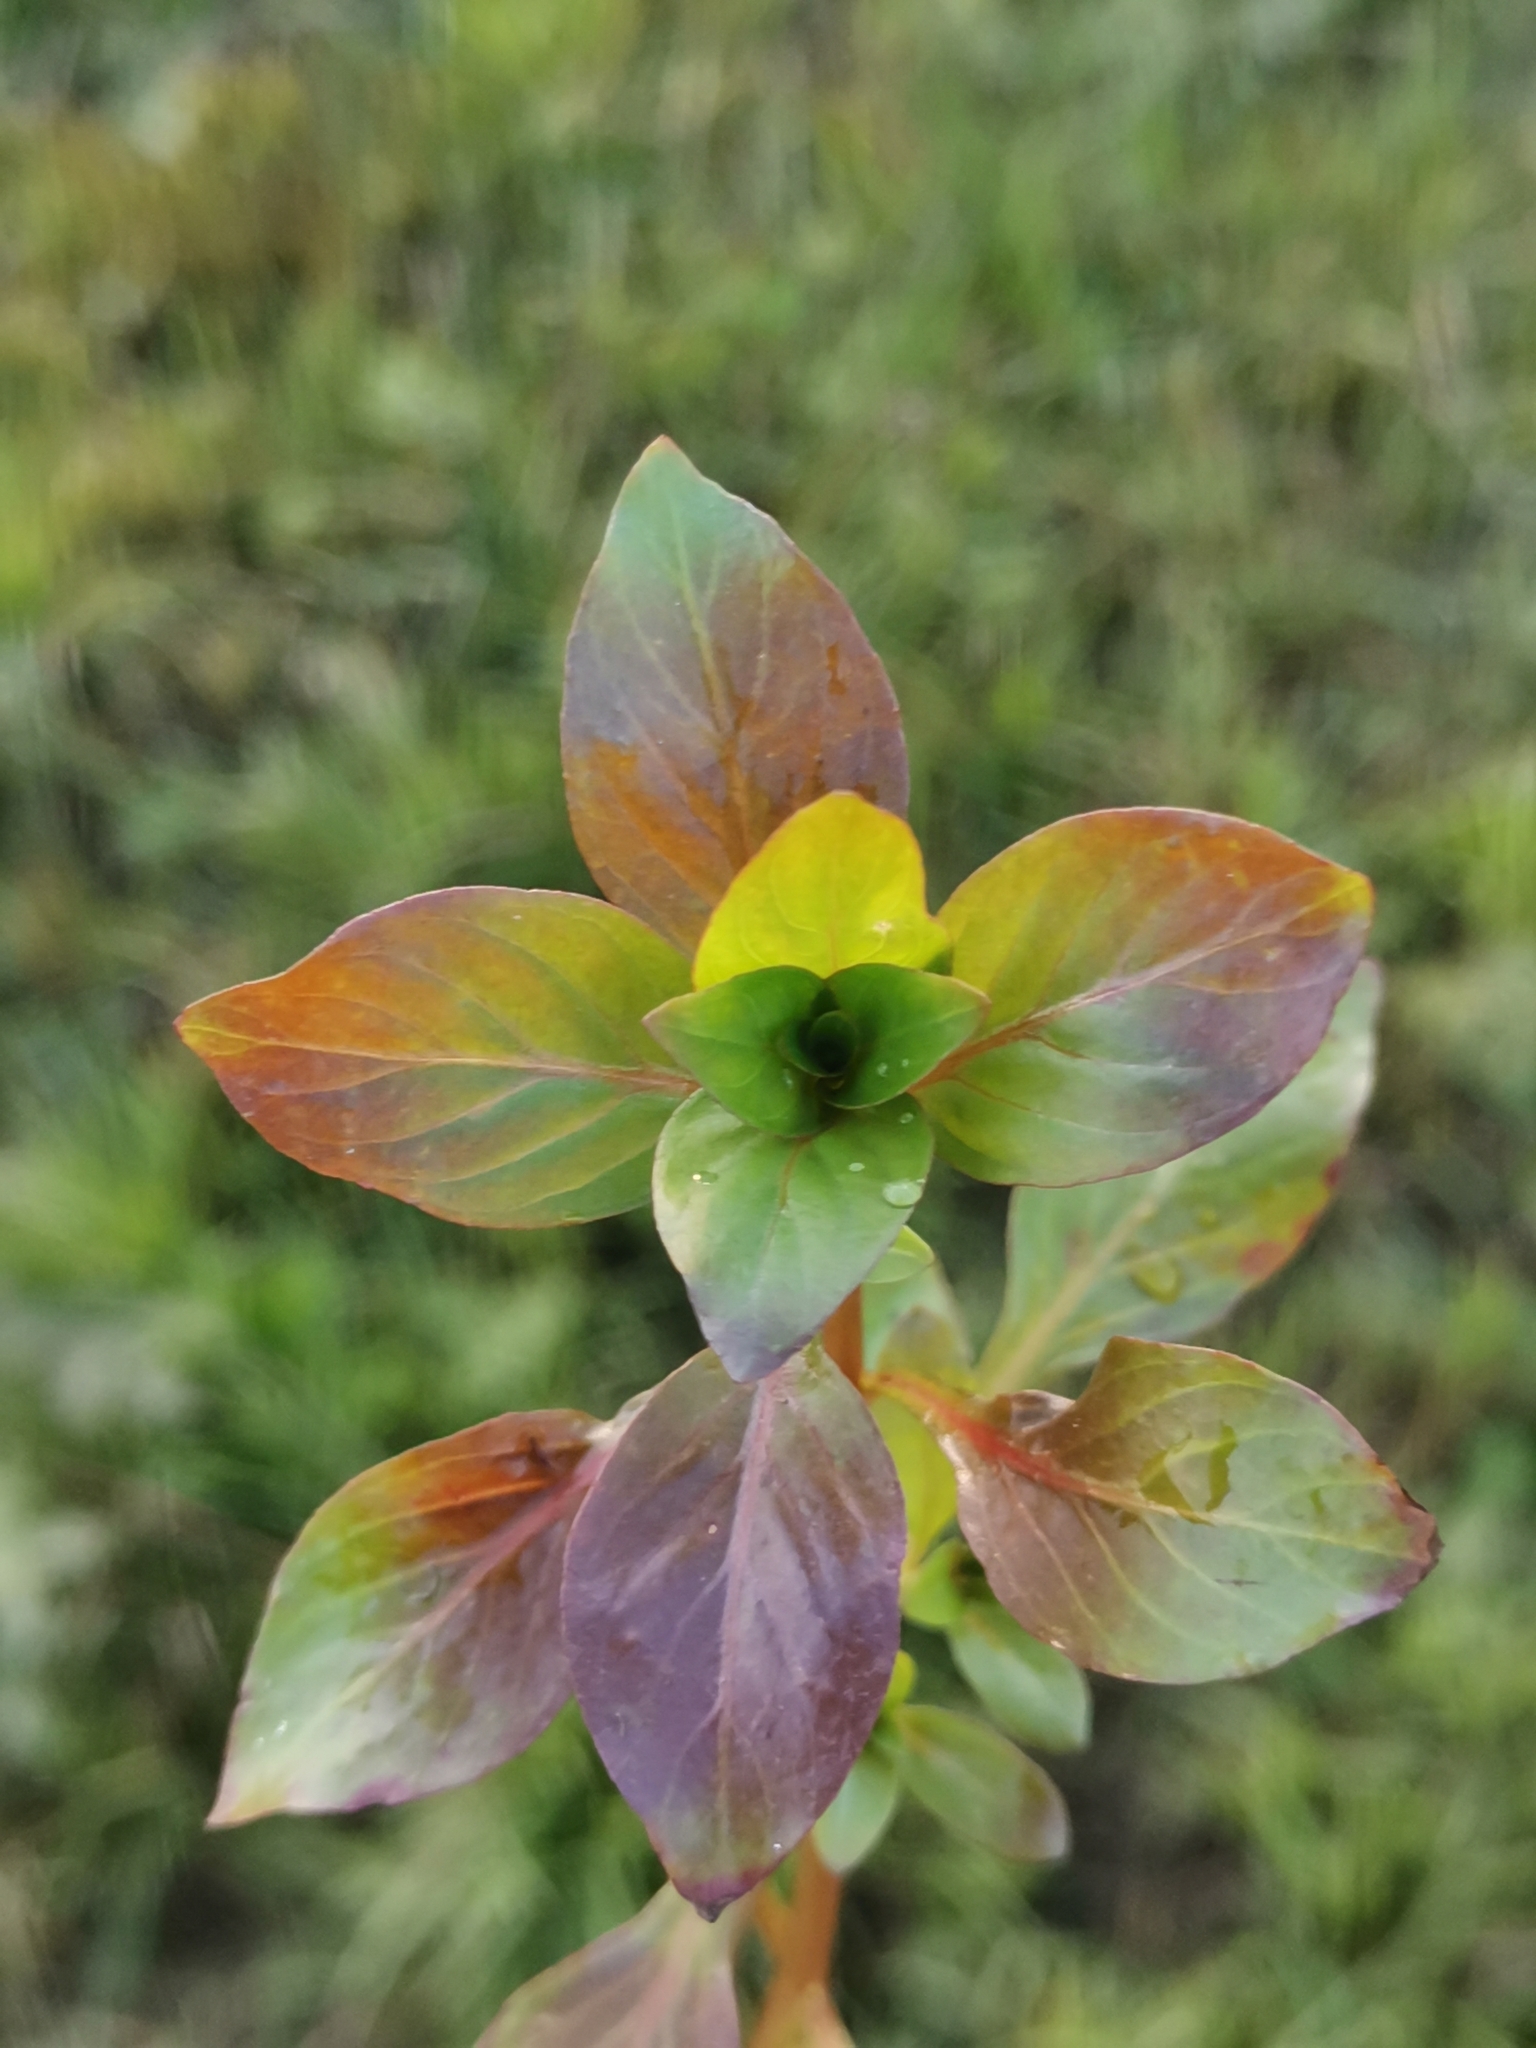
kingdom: Plantae
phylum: Tracheophyta
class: Magnoliopsida
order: Myrtales
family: Onagraceae
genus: Ludwigia
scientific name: Ludwigia palustris
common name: Hampshire-purslane
